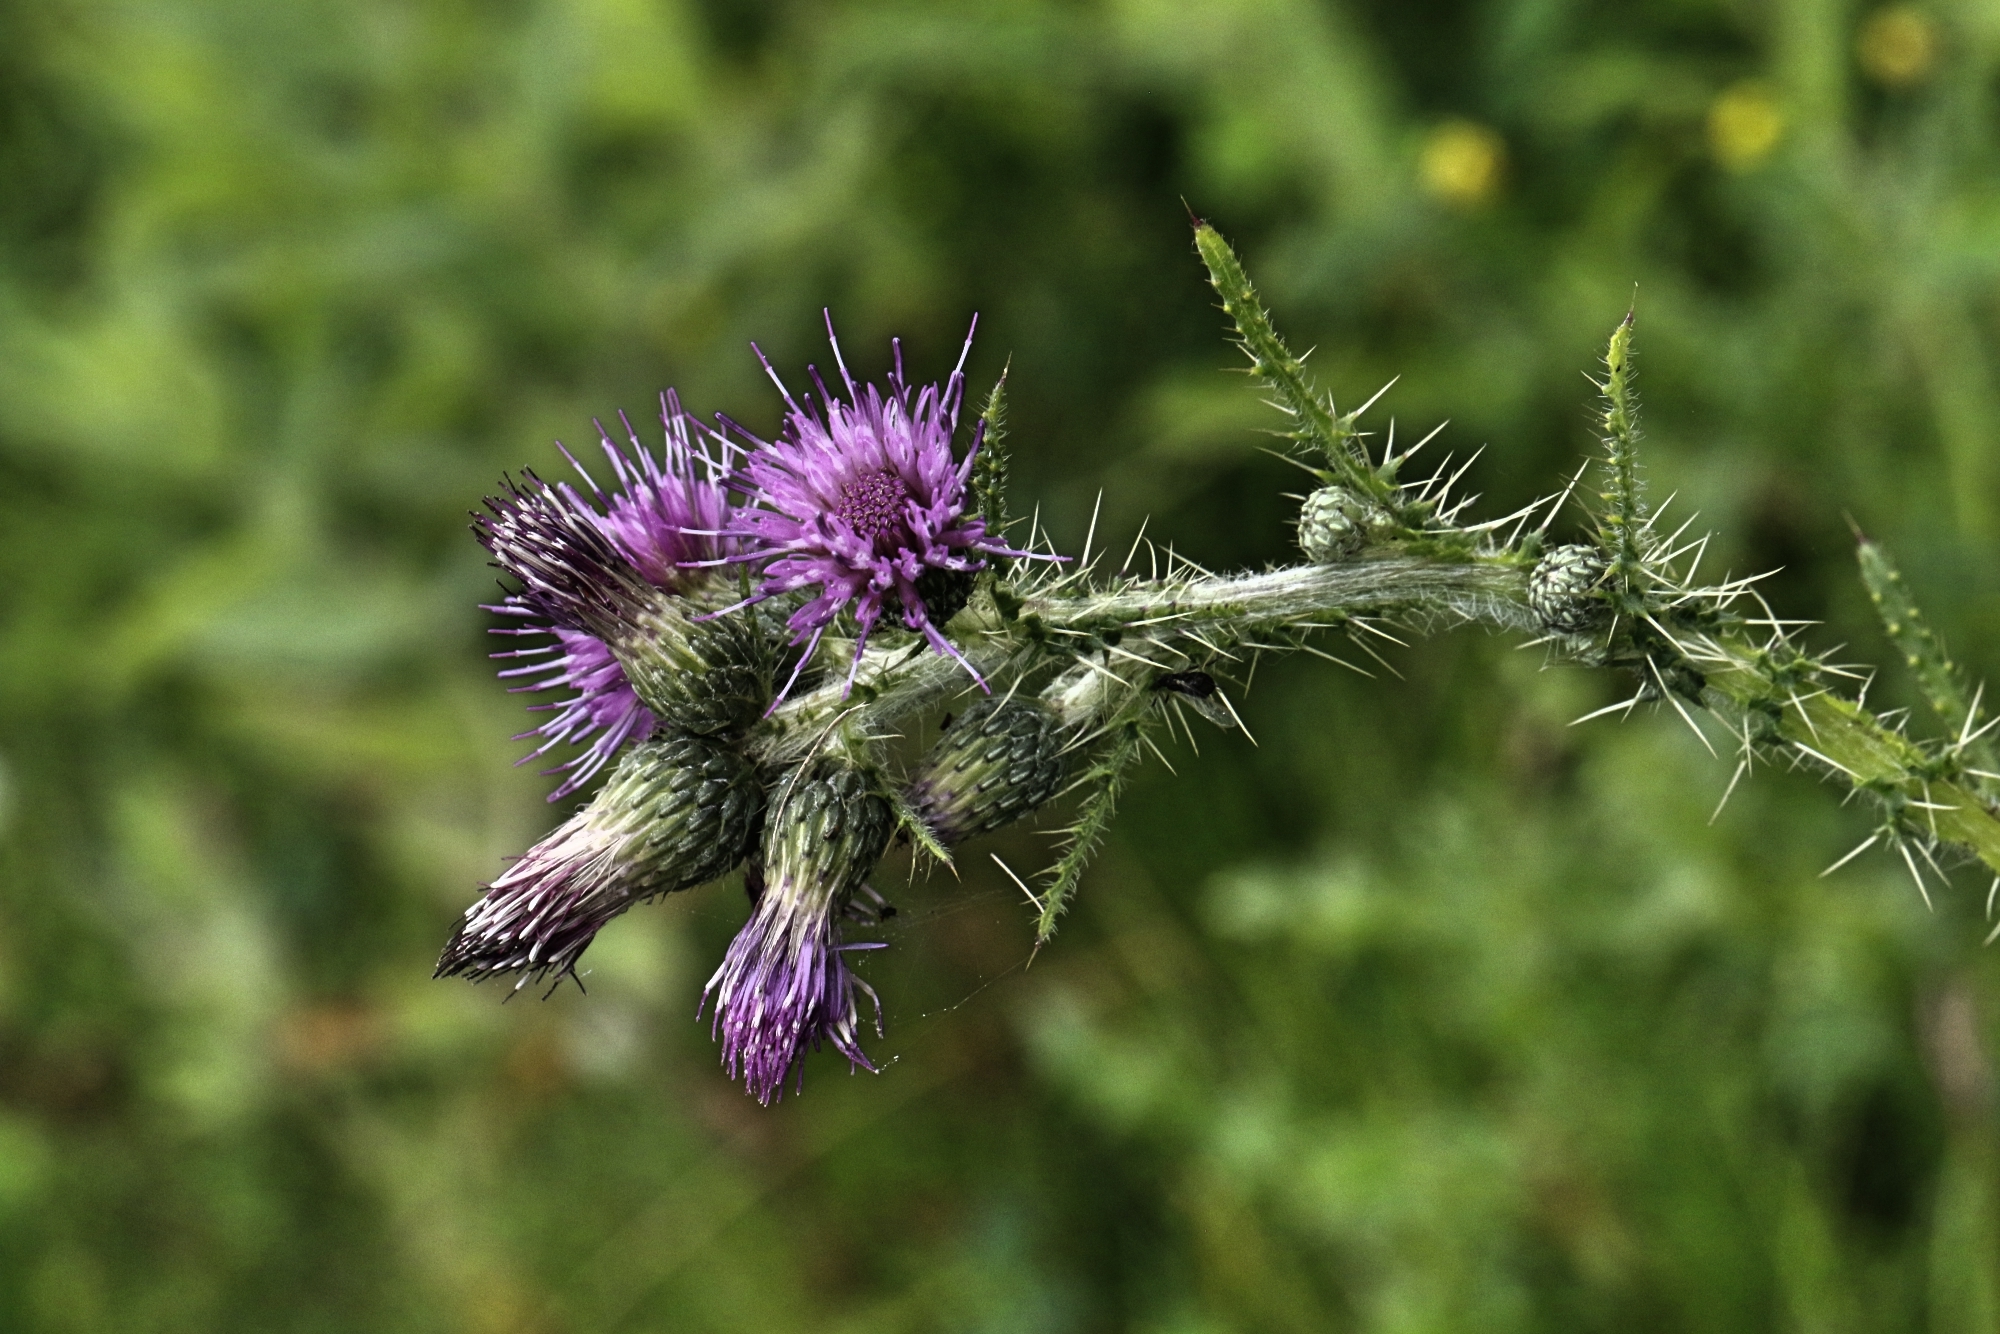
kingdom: Plantae
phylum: Tracheophyta
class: Magnoliopsida
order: Asterales
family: Asteraceae
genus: Cirsium
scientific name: Cirsium palustre
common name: Marsh thistle
